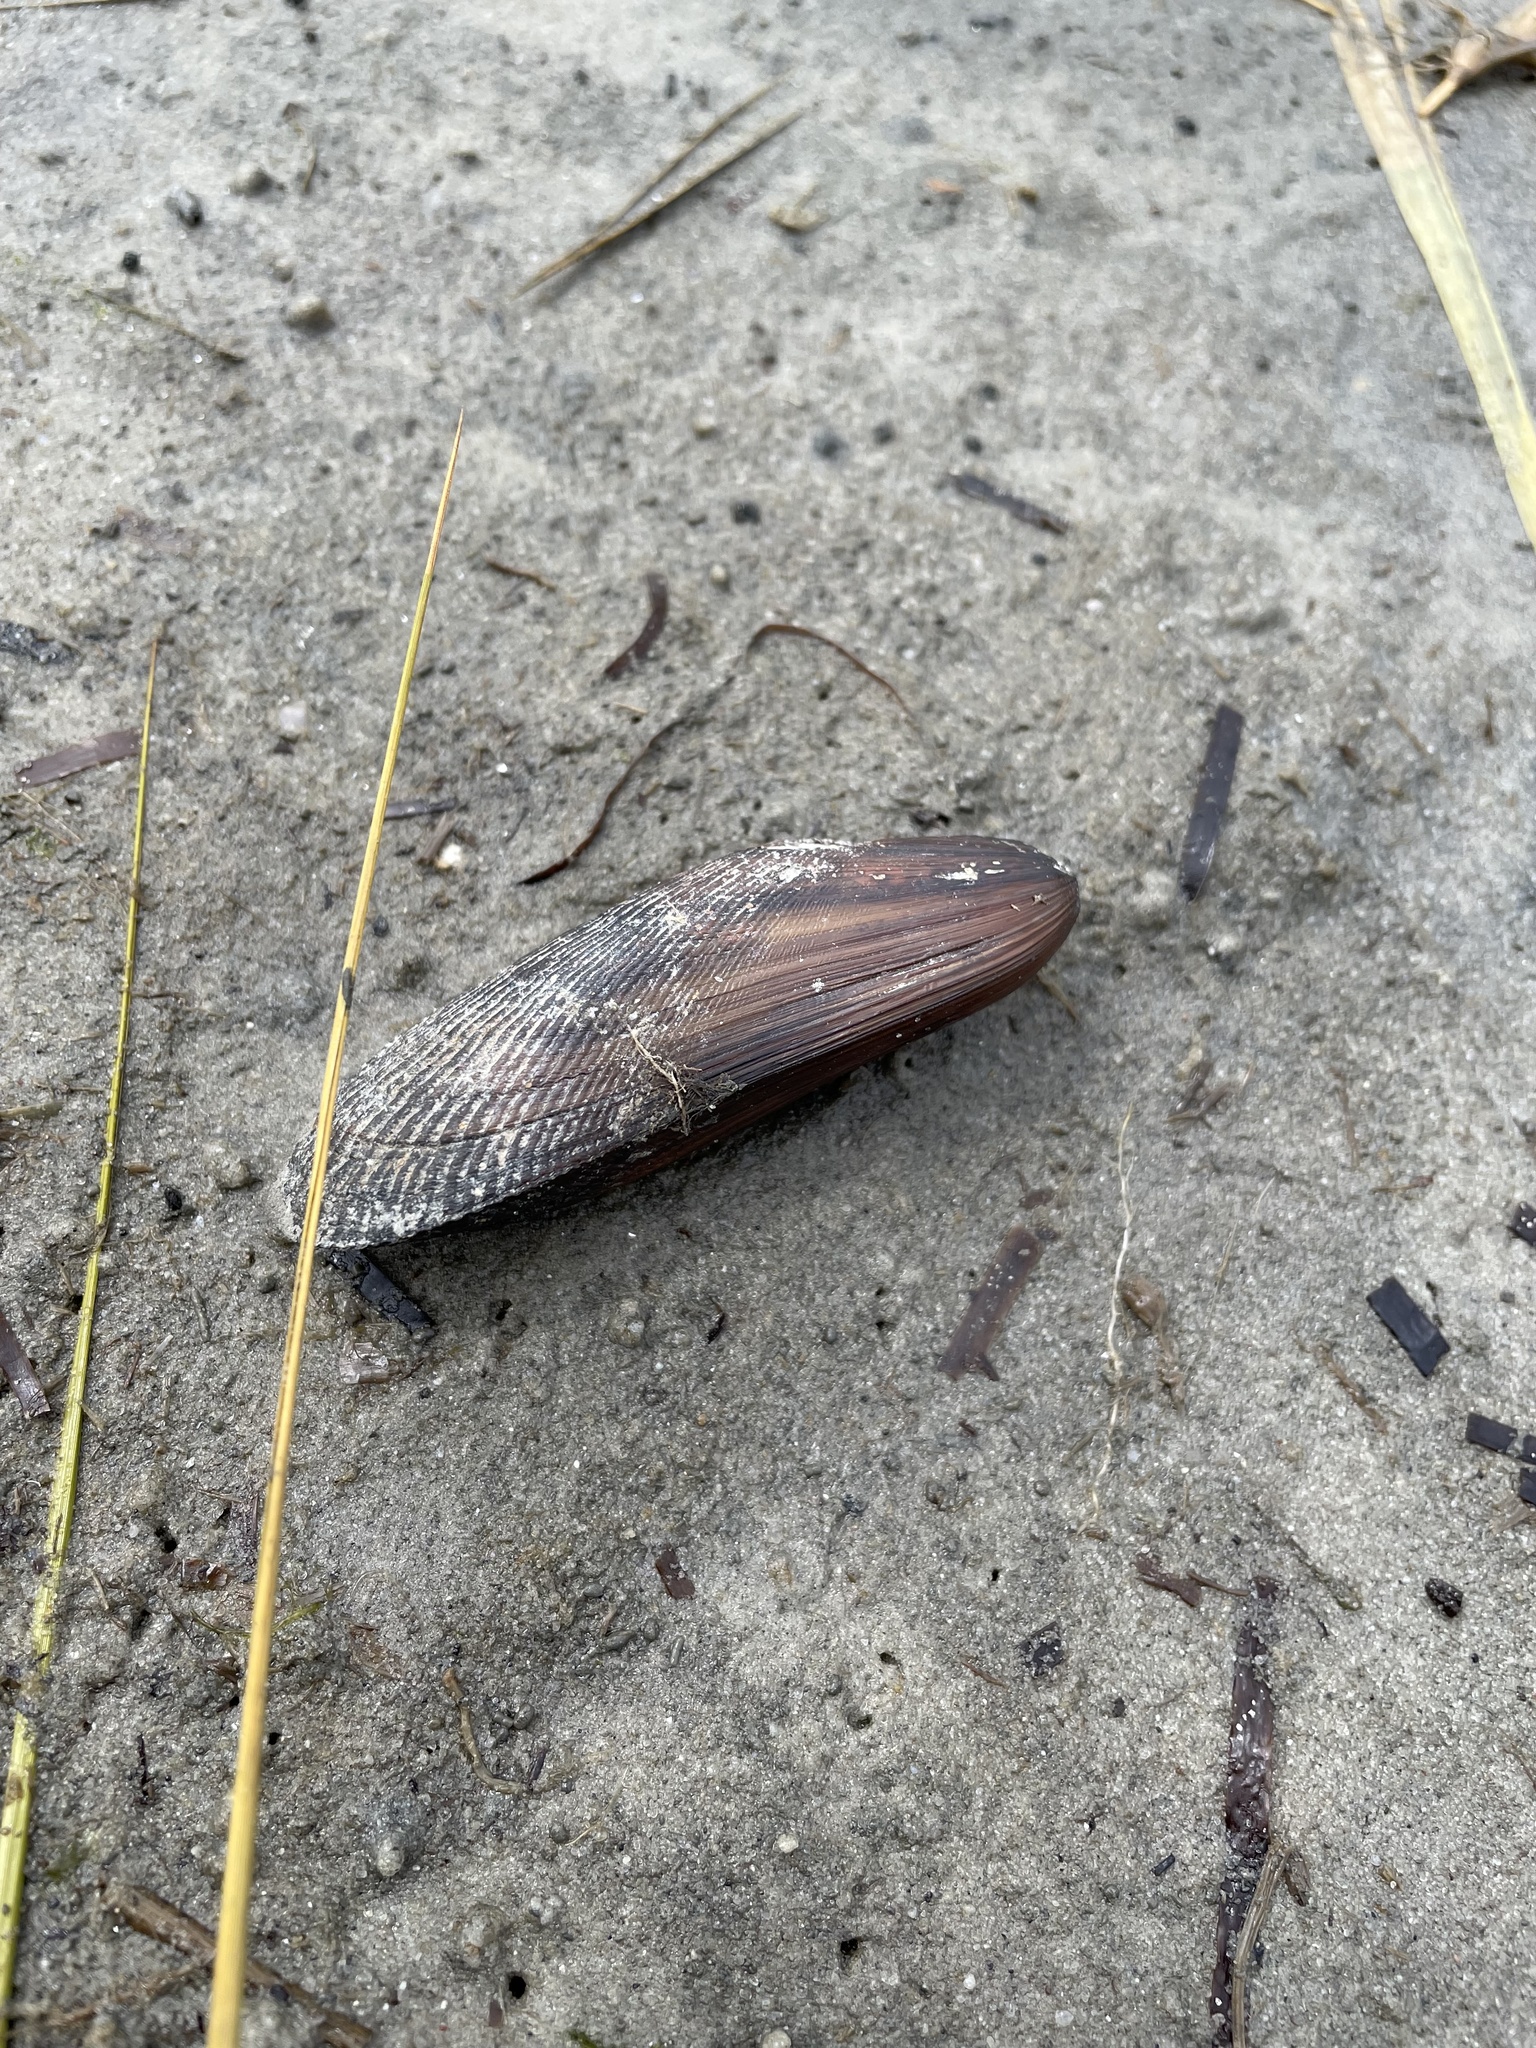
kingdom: Animalia
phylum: Mollusca
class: Bivalvia
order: Mytilida
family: Mytilidae
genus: Geukensia
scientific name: Geukensia demissa
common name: Ribbed mussel
